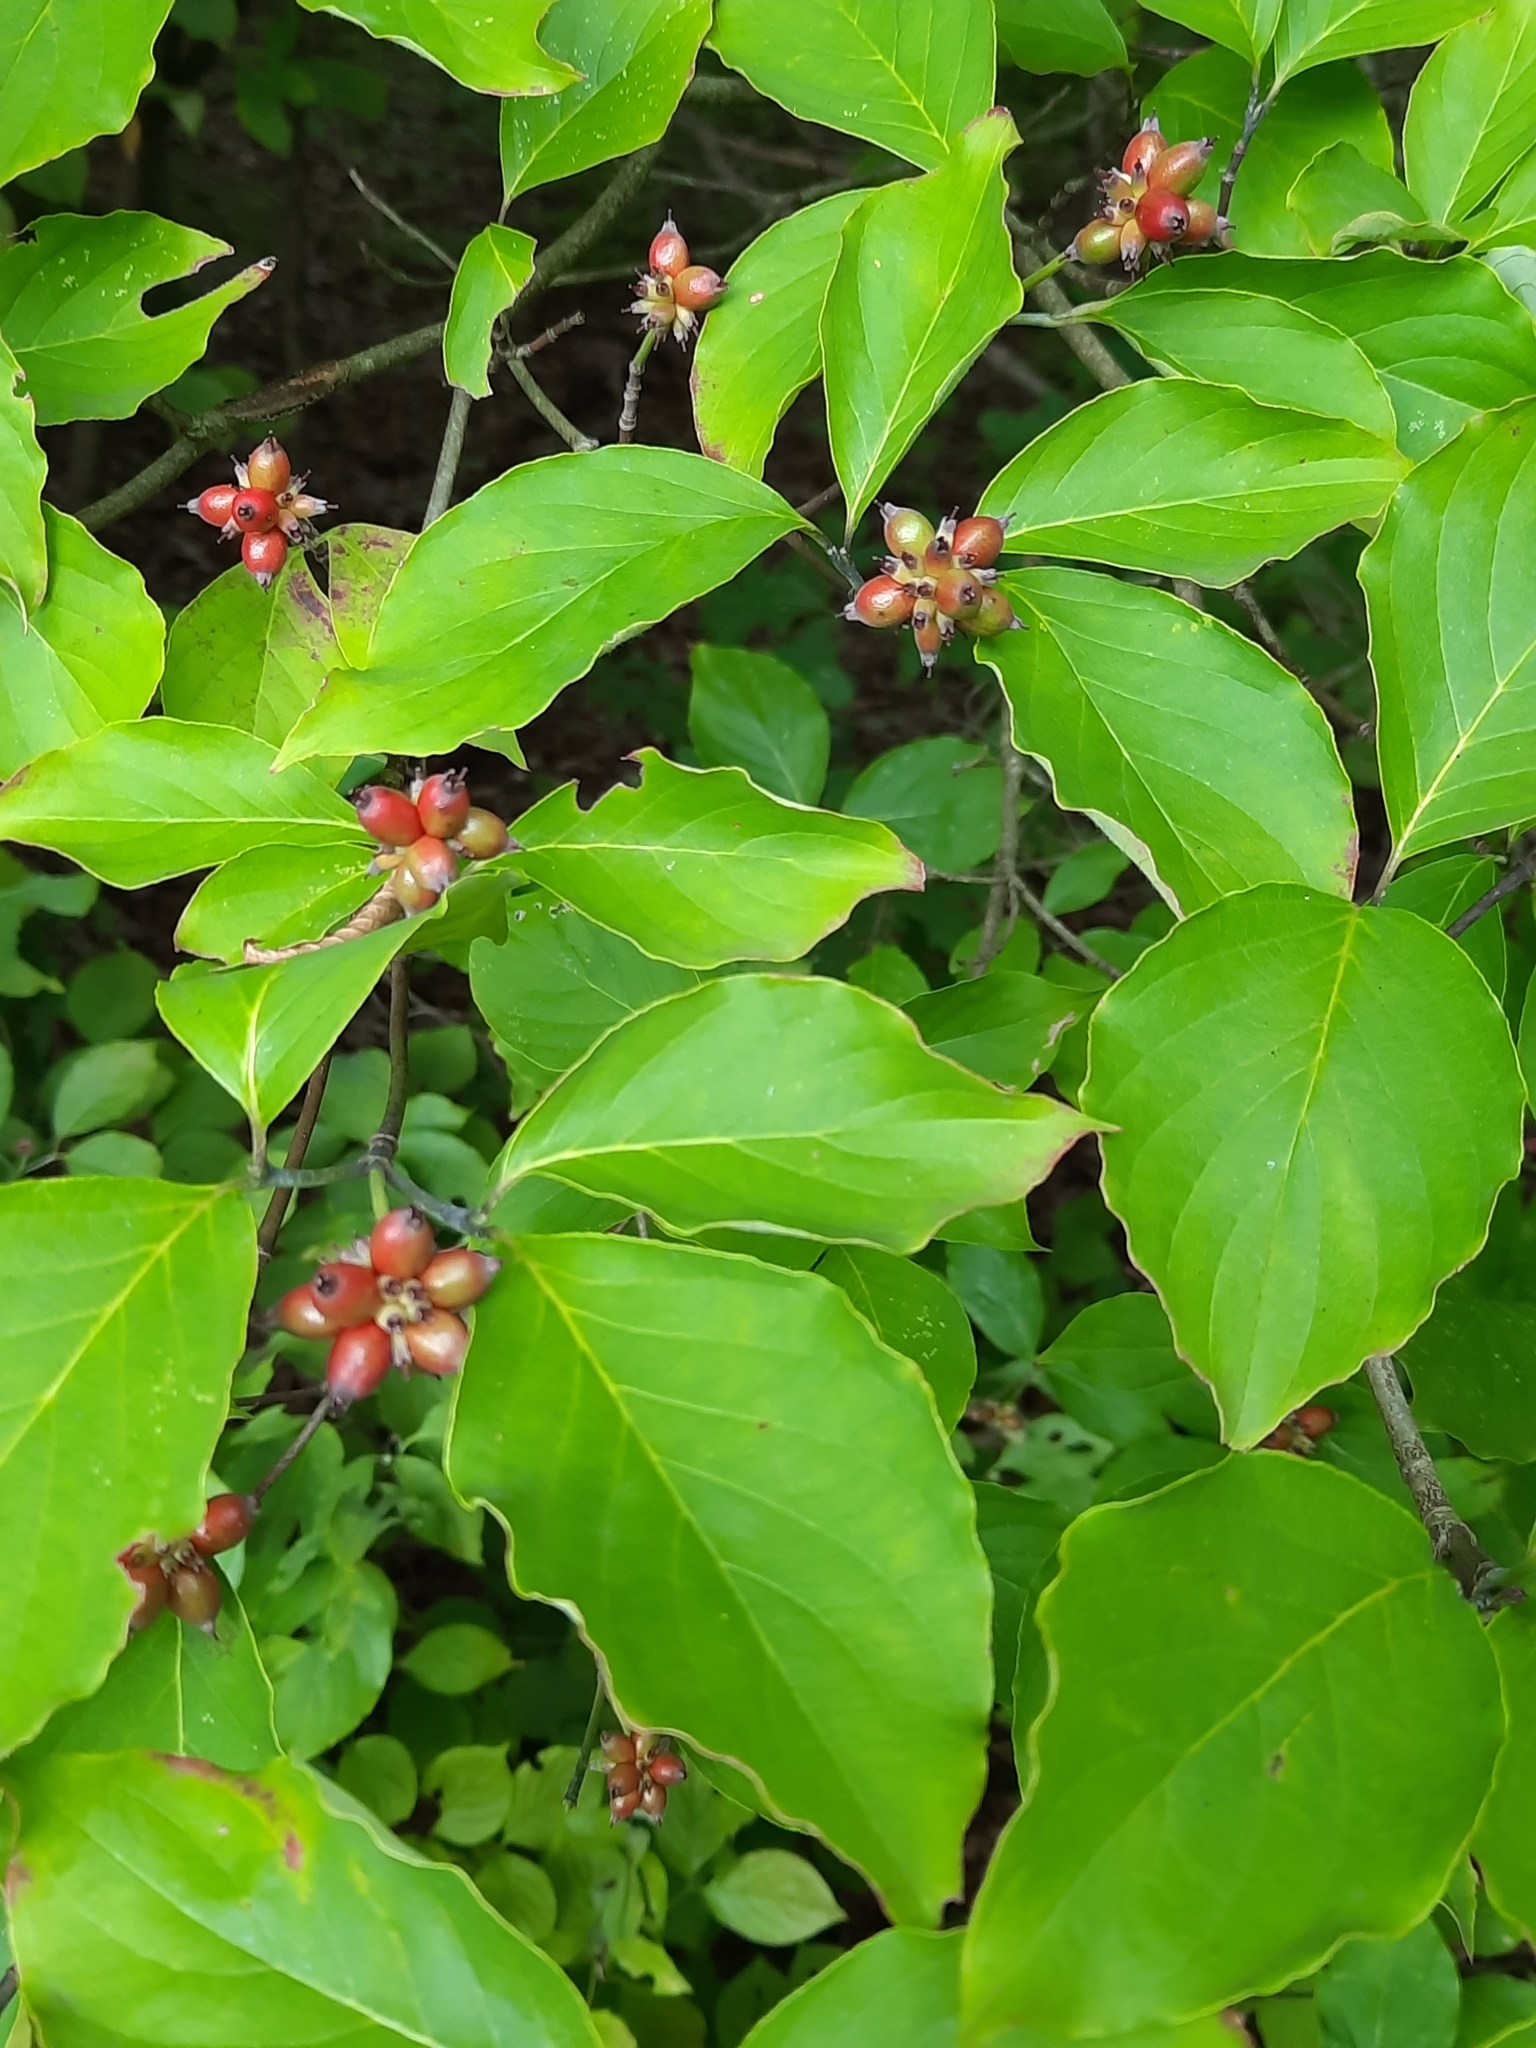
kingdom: Plantae
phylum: Tracheophyta
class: Magnoliopsida
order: Cornales
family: Cornaceae
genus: Cornus
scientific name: Cornus florida
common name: Flowering dogwood
